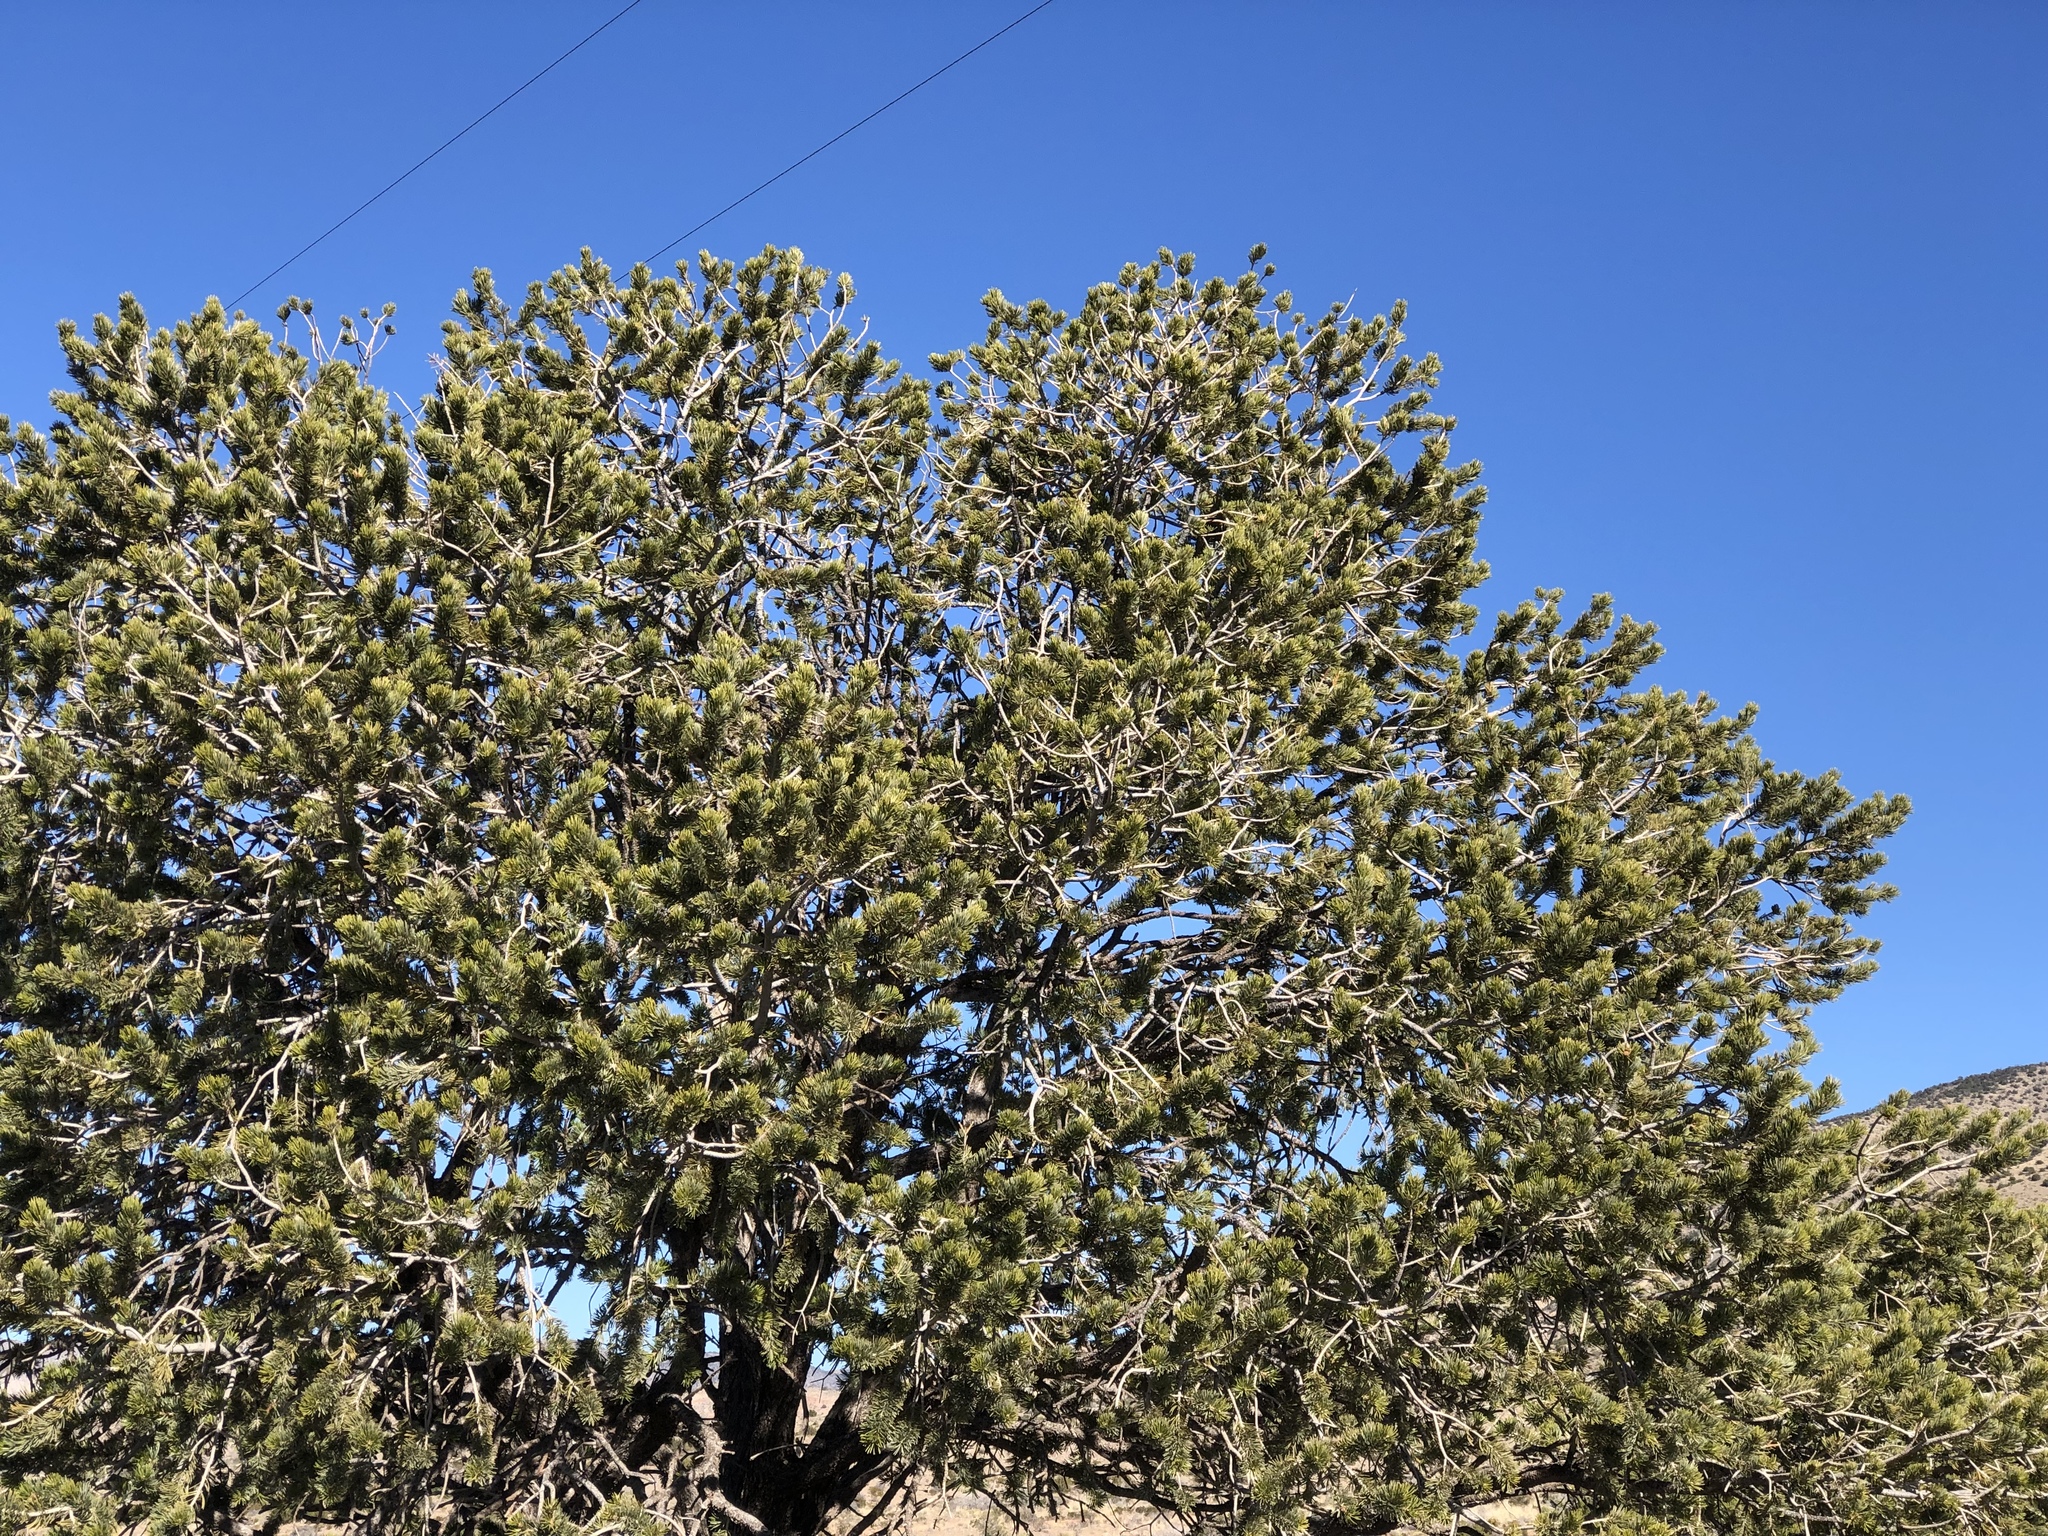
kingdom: Plantae
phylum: Tracheophyta
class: Pinopsida
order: Pinales
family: Pinaceae
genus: Pinus
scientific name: Pinus edulis
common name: Colorado pinyon
